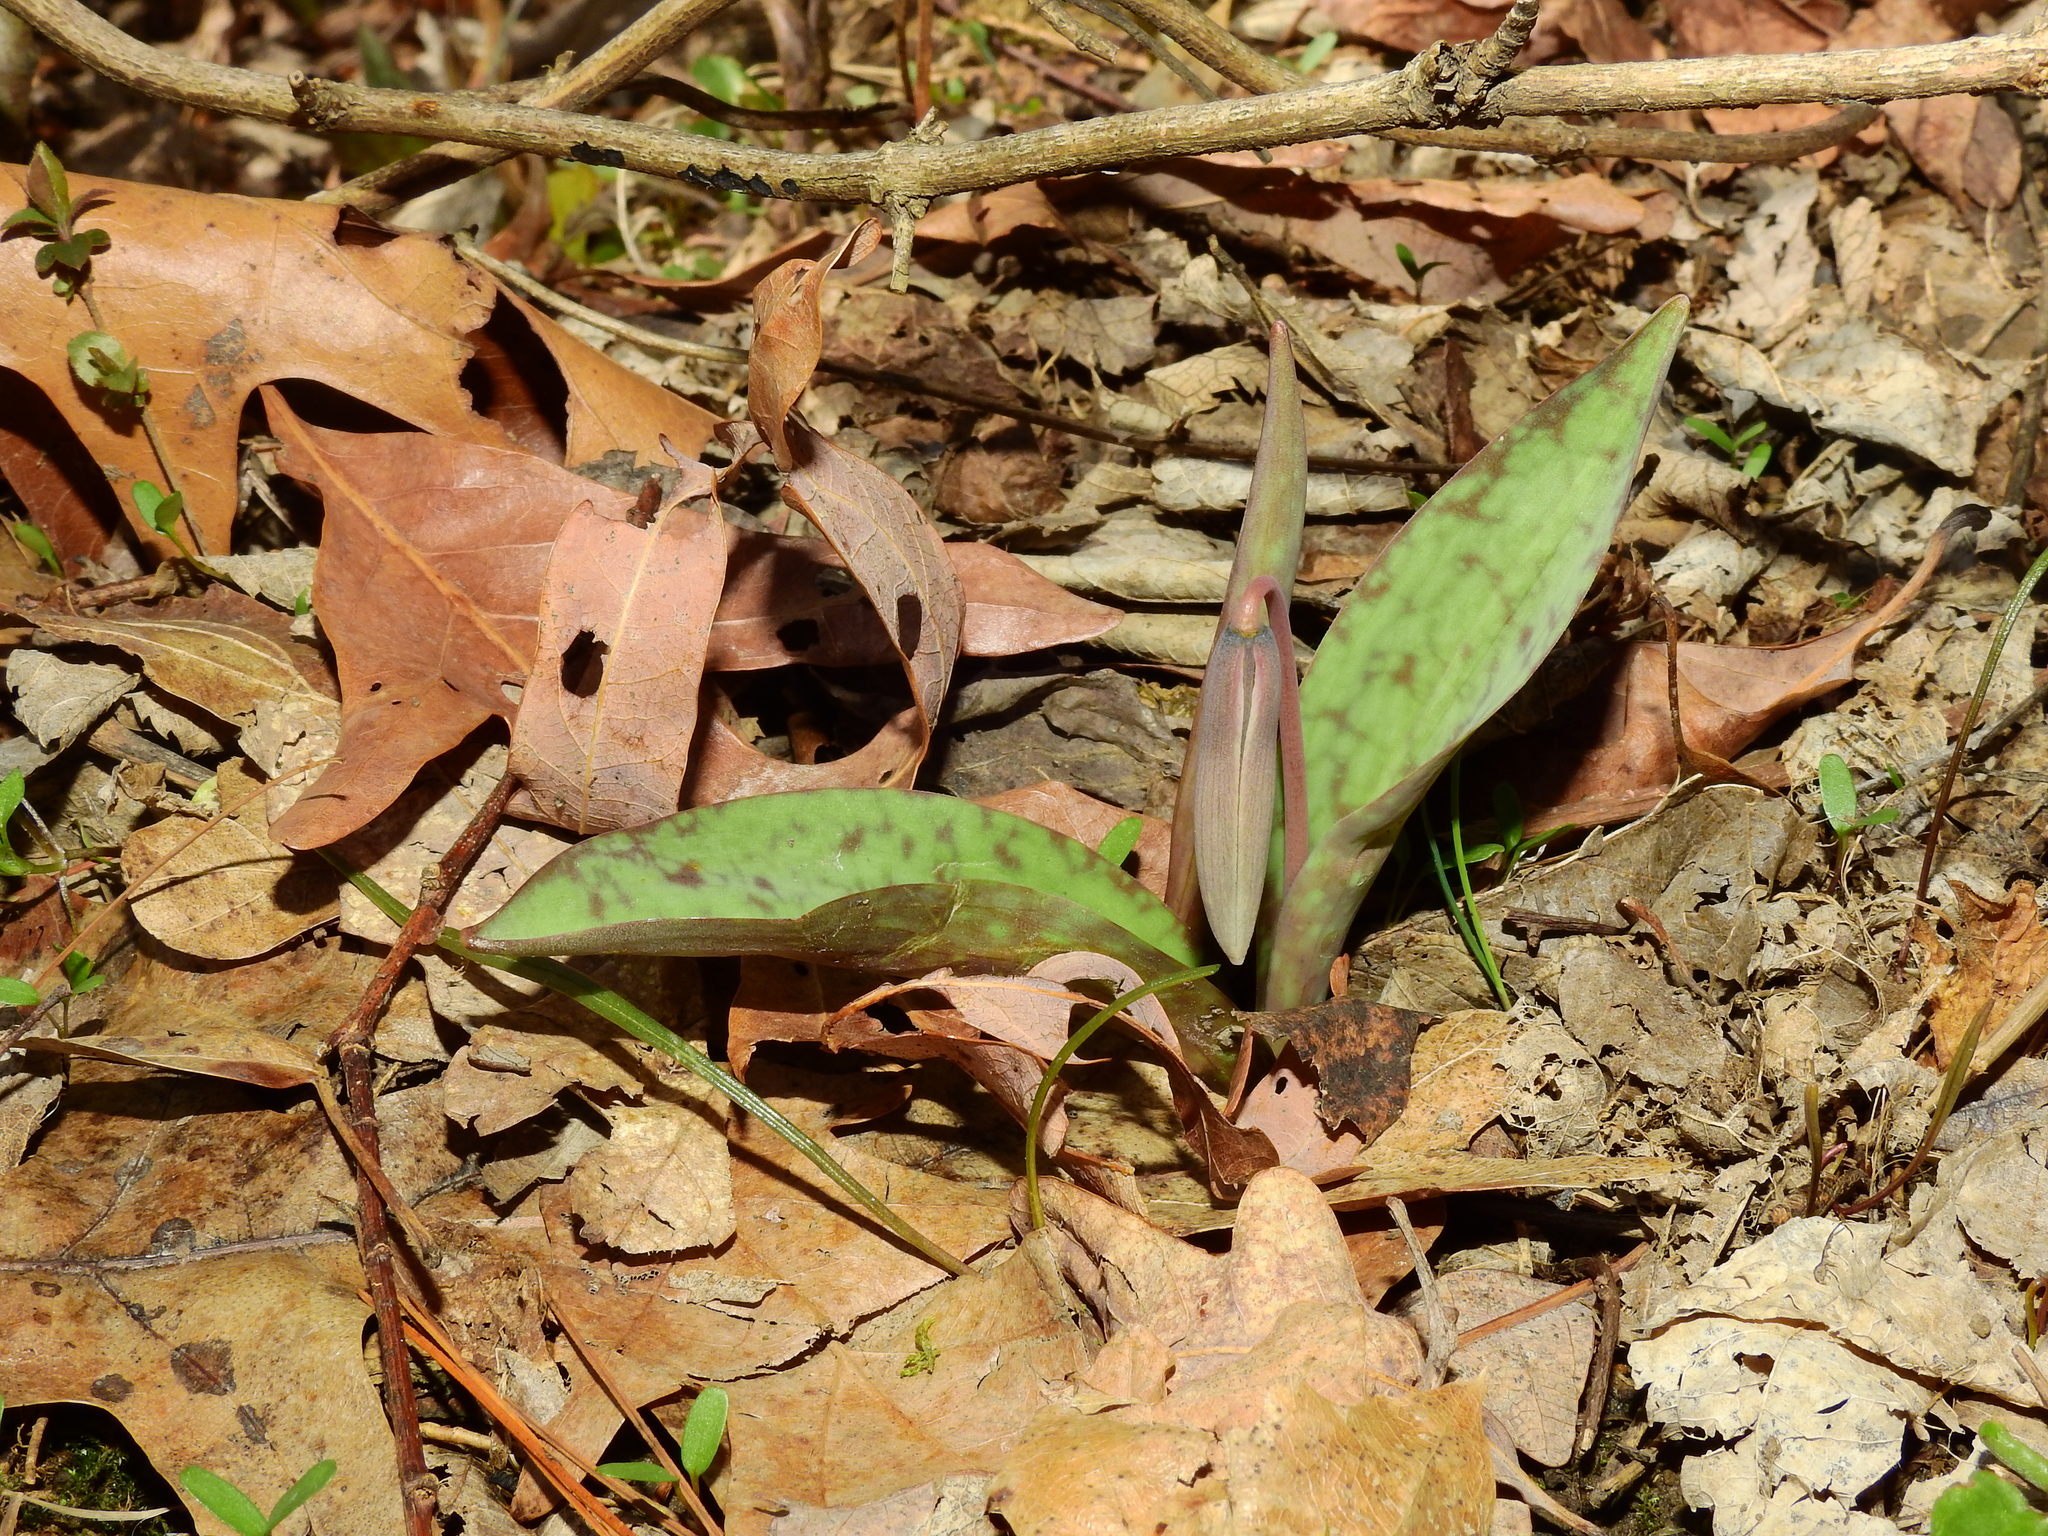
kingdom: Plantae
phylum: Tracheophyta
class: Liliopsida
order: Liliales
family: Liliaceae
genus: Erythronium
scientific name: Erythronium albidum
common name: White trout-lily
